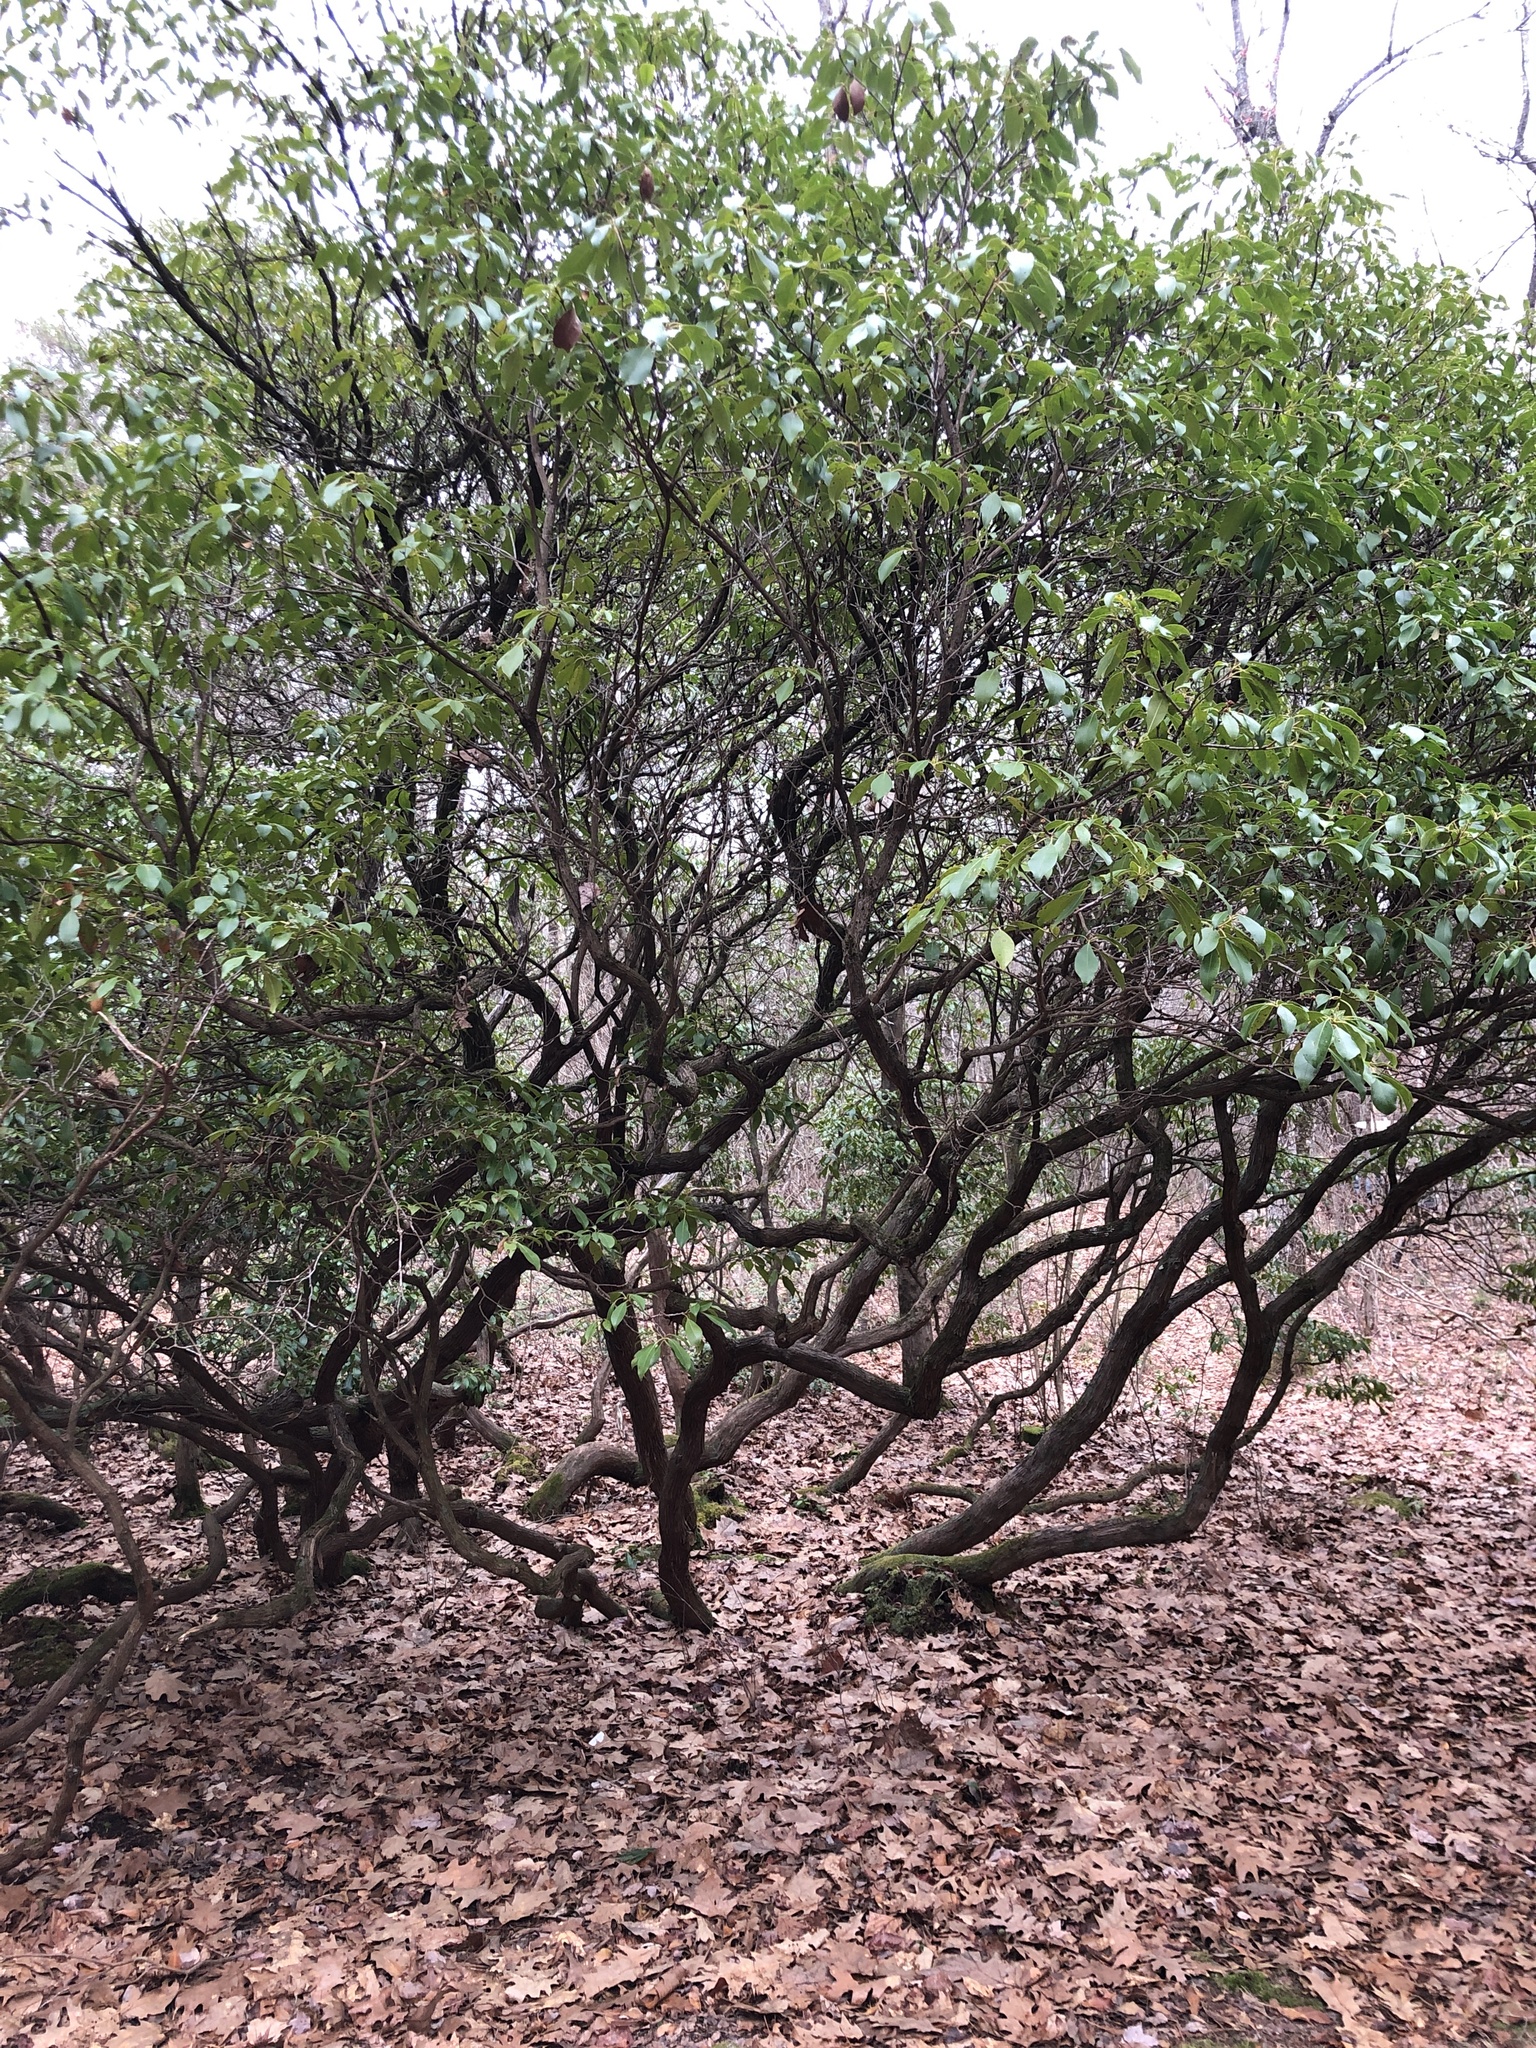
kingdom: Plantae
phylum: Tracheophyta
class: Magnoliopsida
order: Ericales
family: Ericaceae
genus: Kalmia
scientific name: Kalmia latifolia
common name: Mountain-laurel
